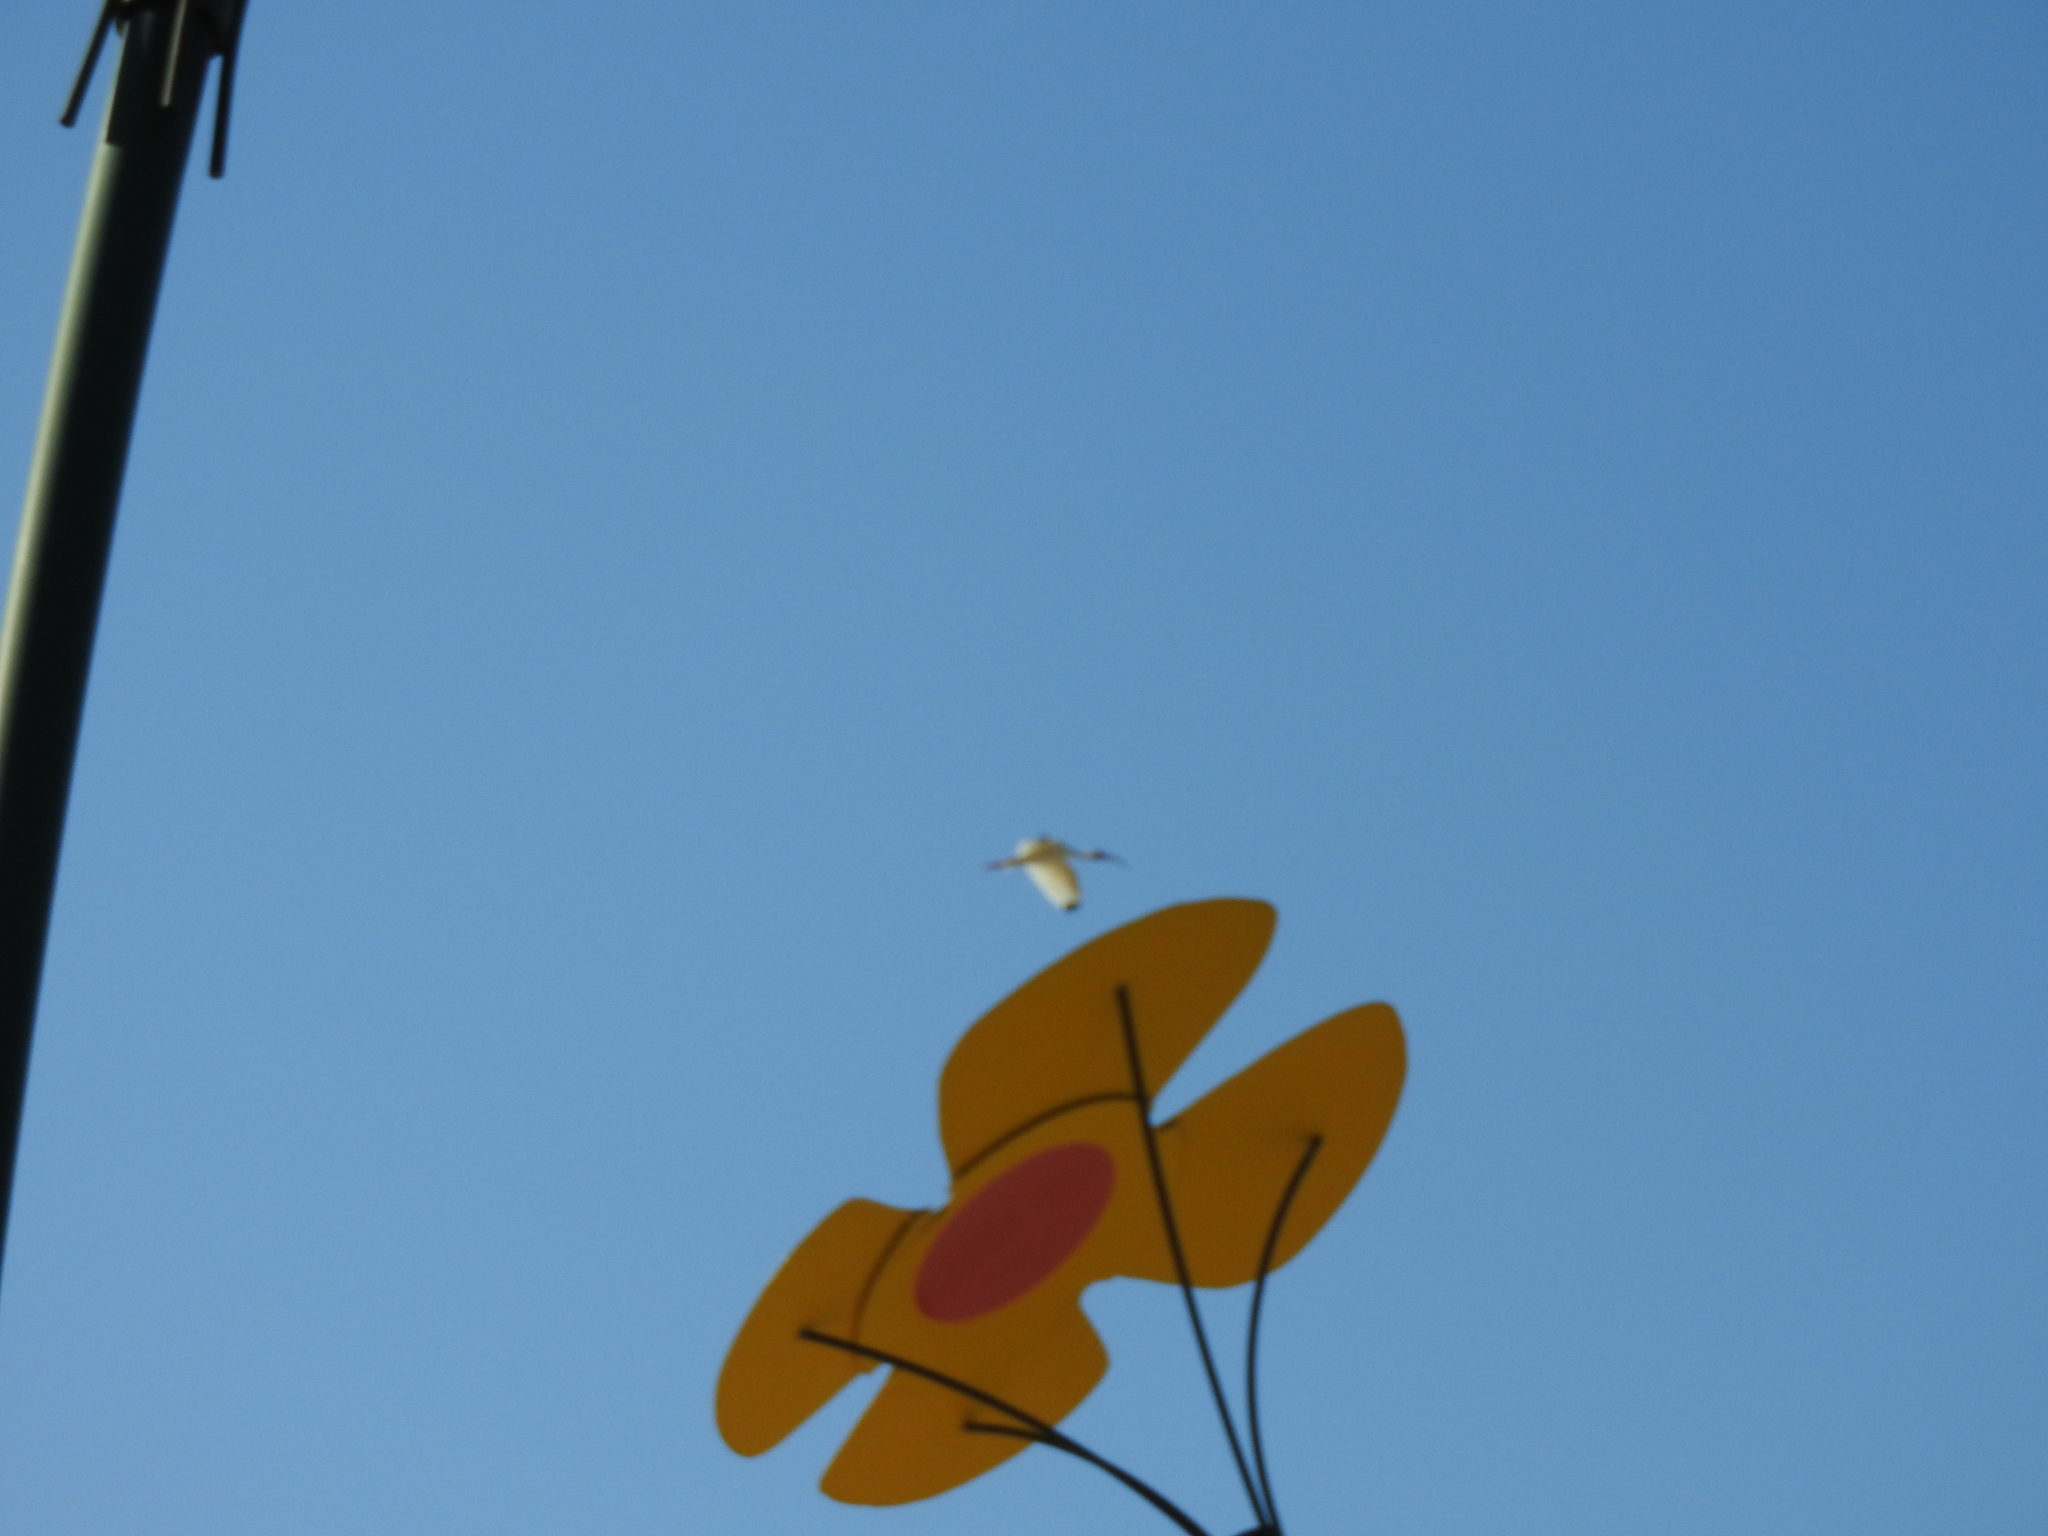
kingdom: Animalia
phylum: Chordata
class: Aves
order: Pelecaniformes
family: Threskiornithidae
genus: Eudocimus
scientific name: Eudocimus albus
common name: White ibis
